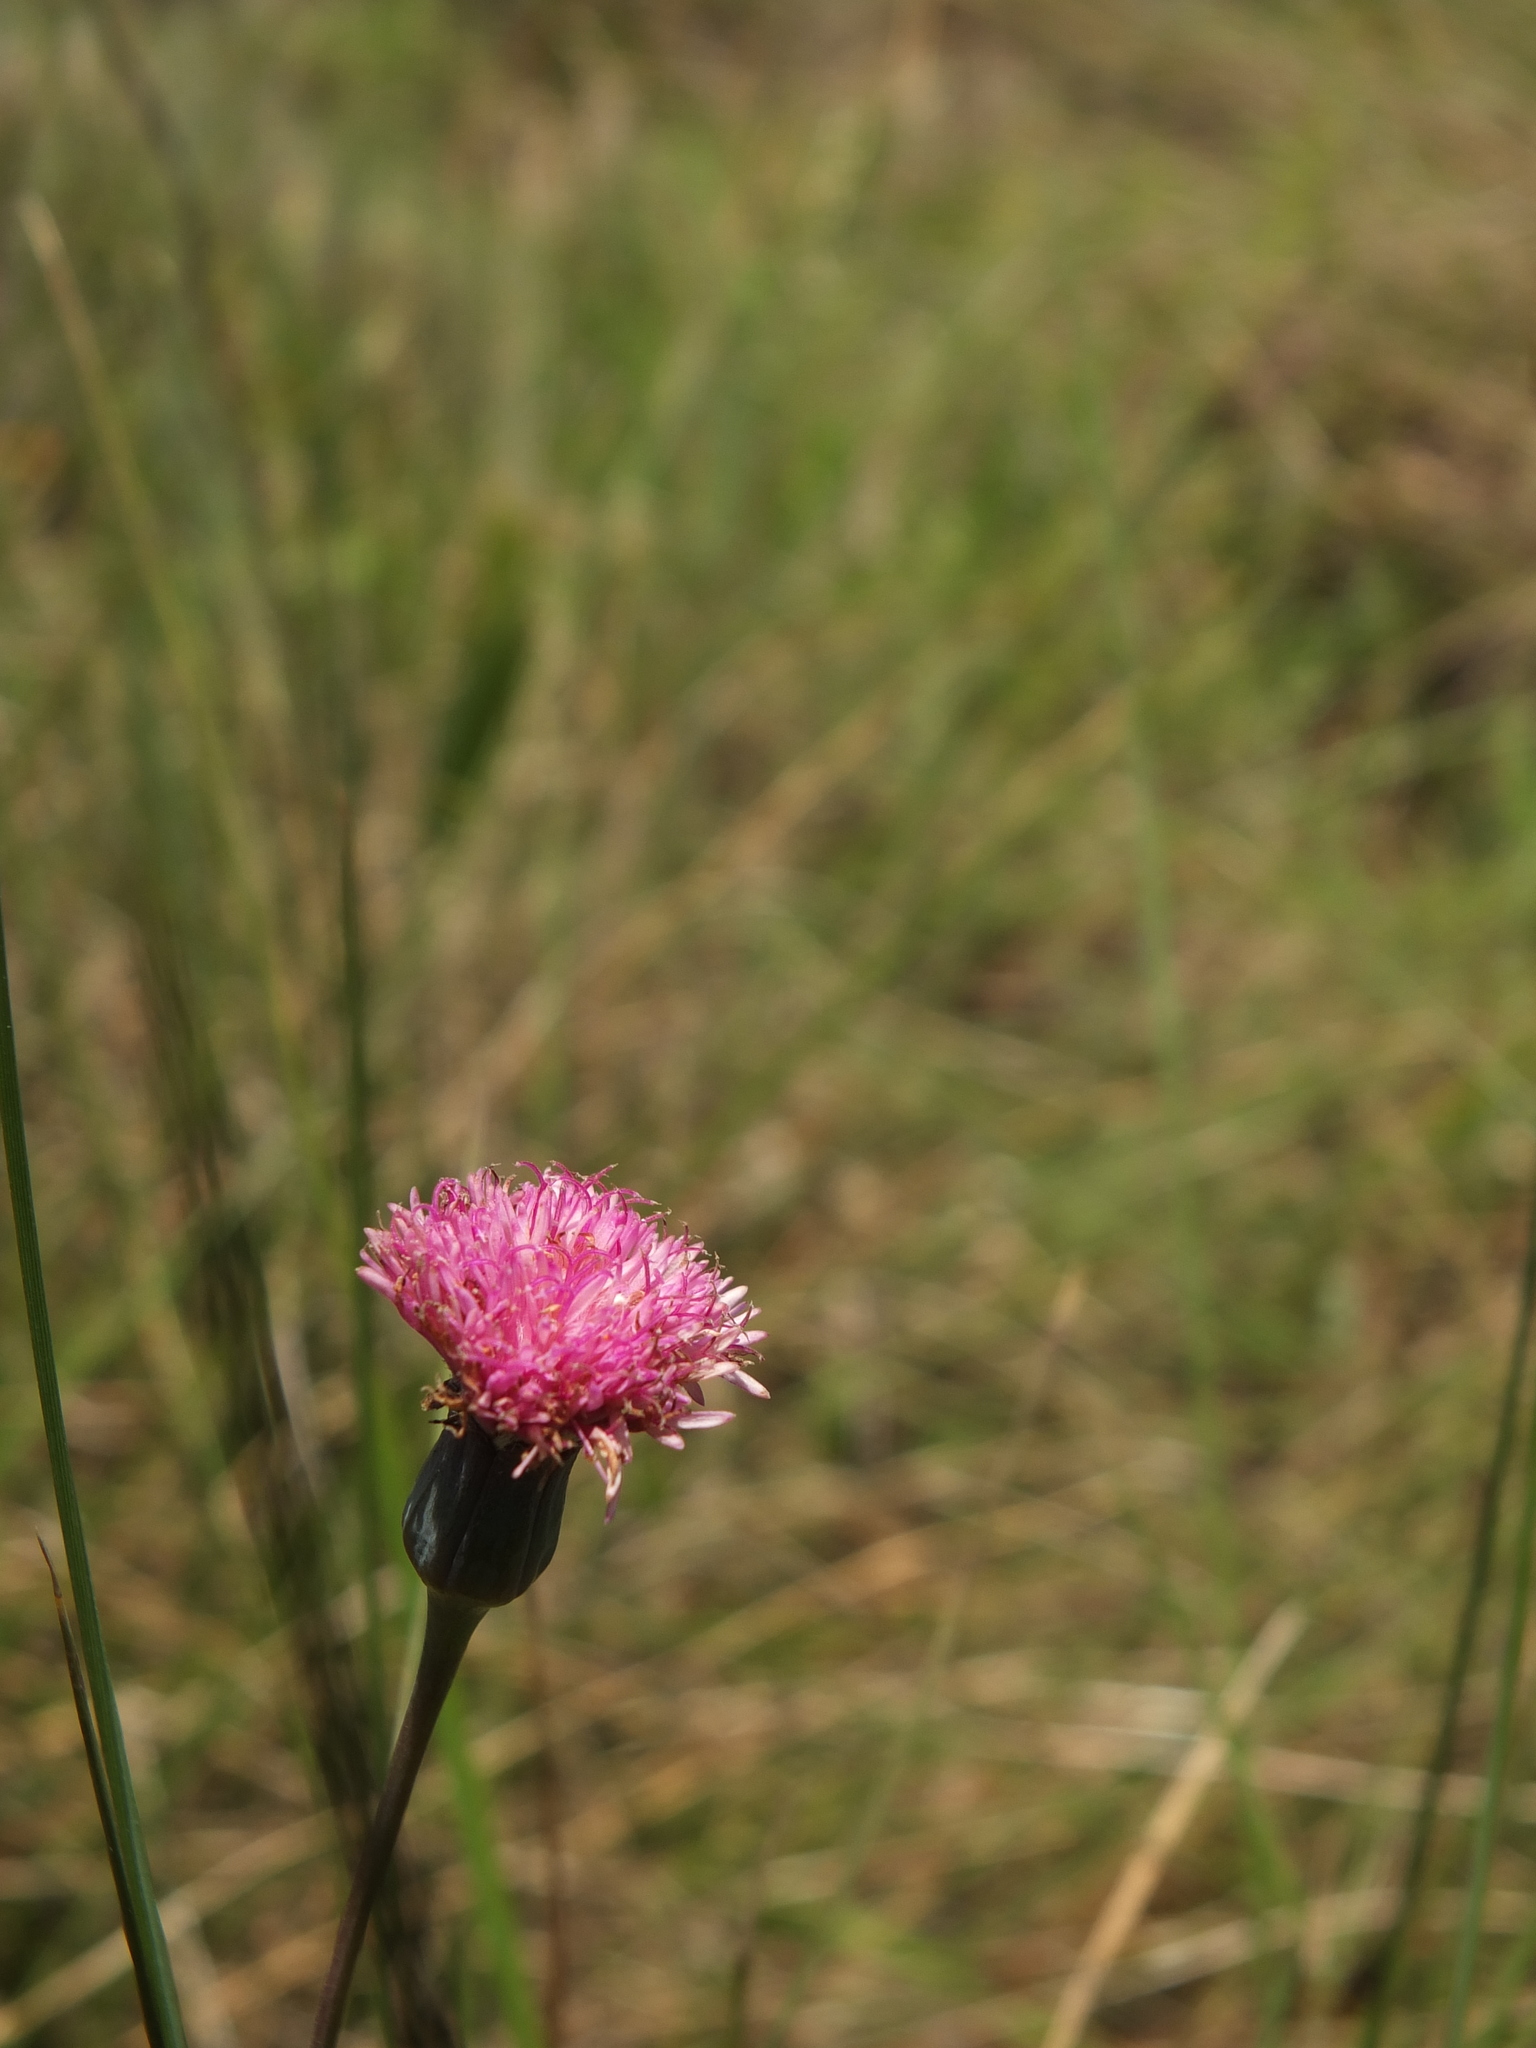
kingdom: Plantae
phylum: Tracheophyta
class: Magnoliopsida
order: Asterales
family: Asteraceae
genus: Emilia
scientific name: Emilia ramulosa
